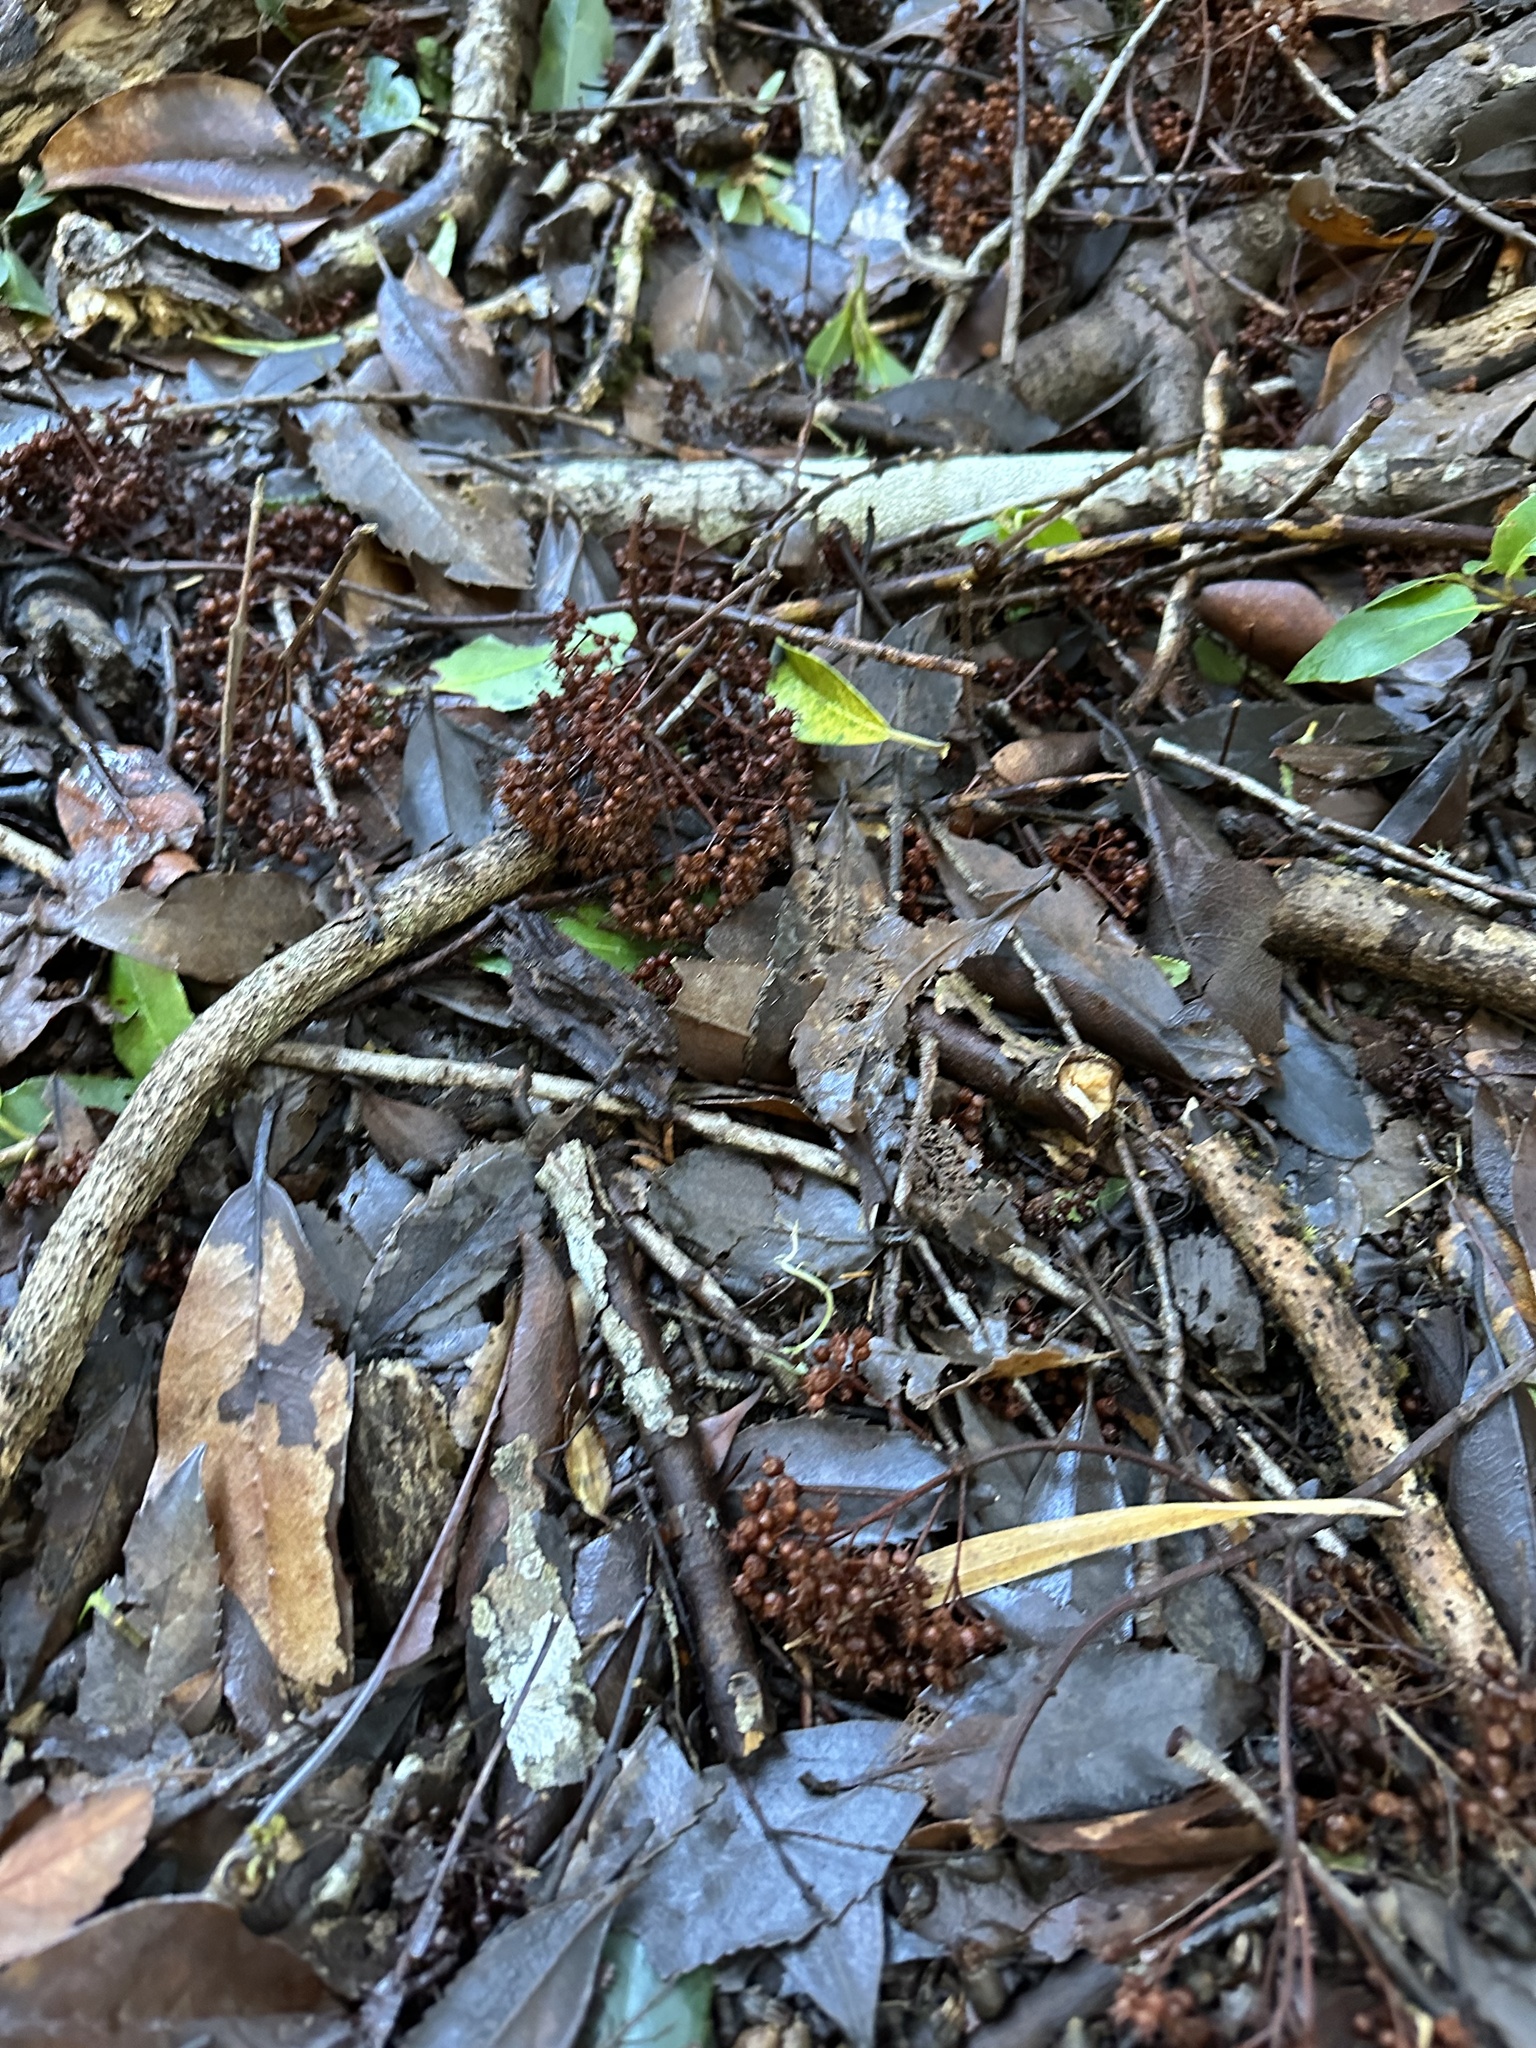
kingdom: Plantae
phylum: Tracheophyta
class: Magnoliopsida
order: Cornales
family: Hydrangeaceae
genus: Hydrangea
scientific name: Hydrangea serratifolia
